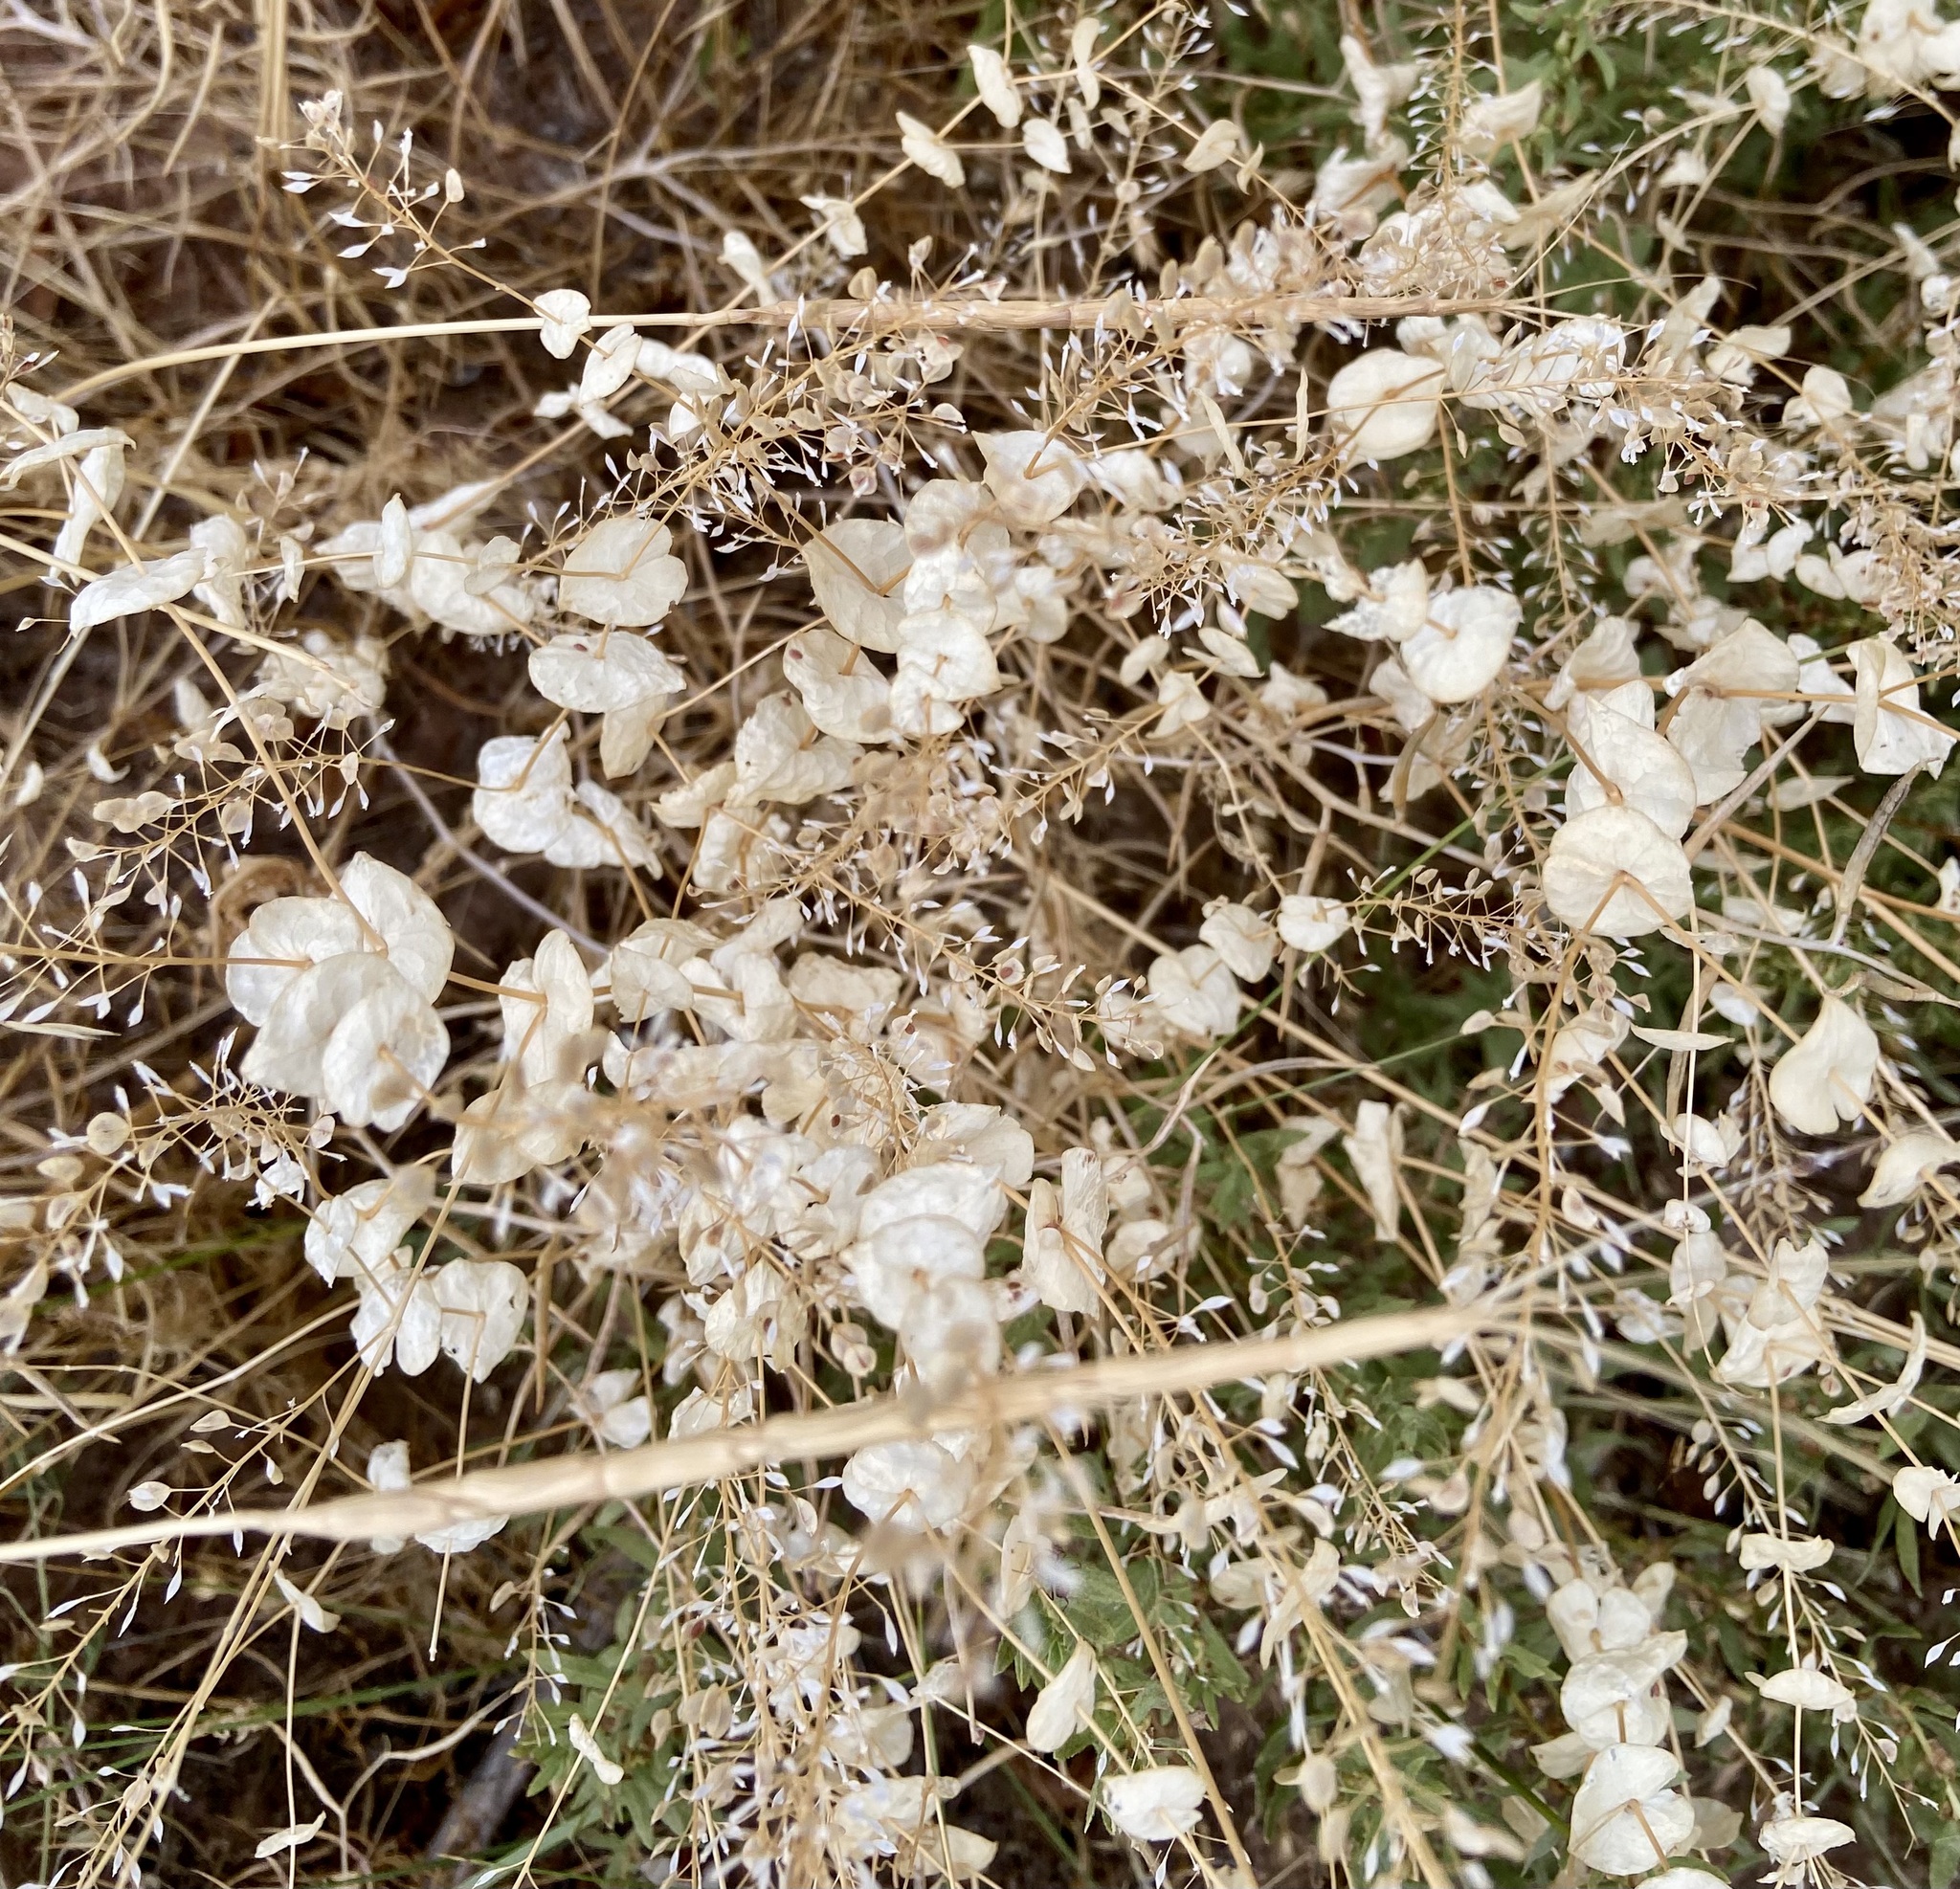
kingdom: Plantae
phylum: Tracheophyta
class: Magnoliopsida
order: Brassicales
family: Brassicaceae
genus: Lepidium
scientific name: Lepidium perfoliatum
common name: Perfoliate pepperwort
